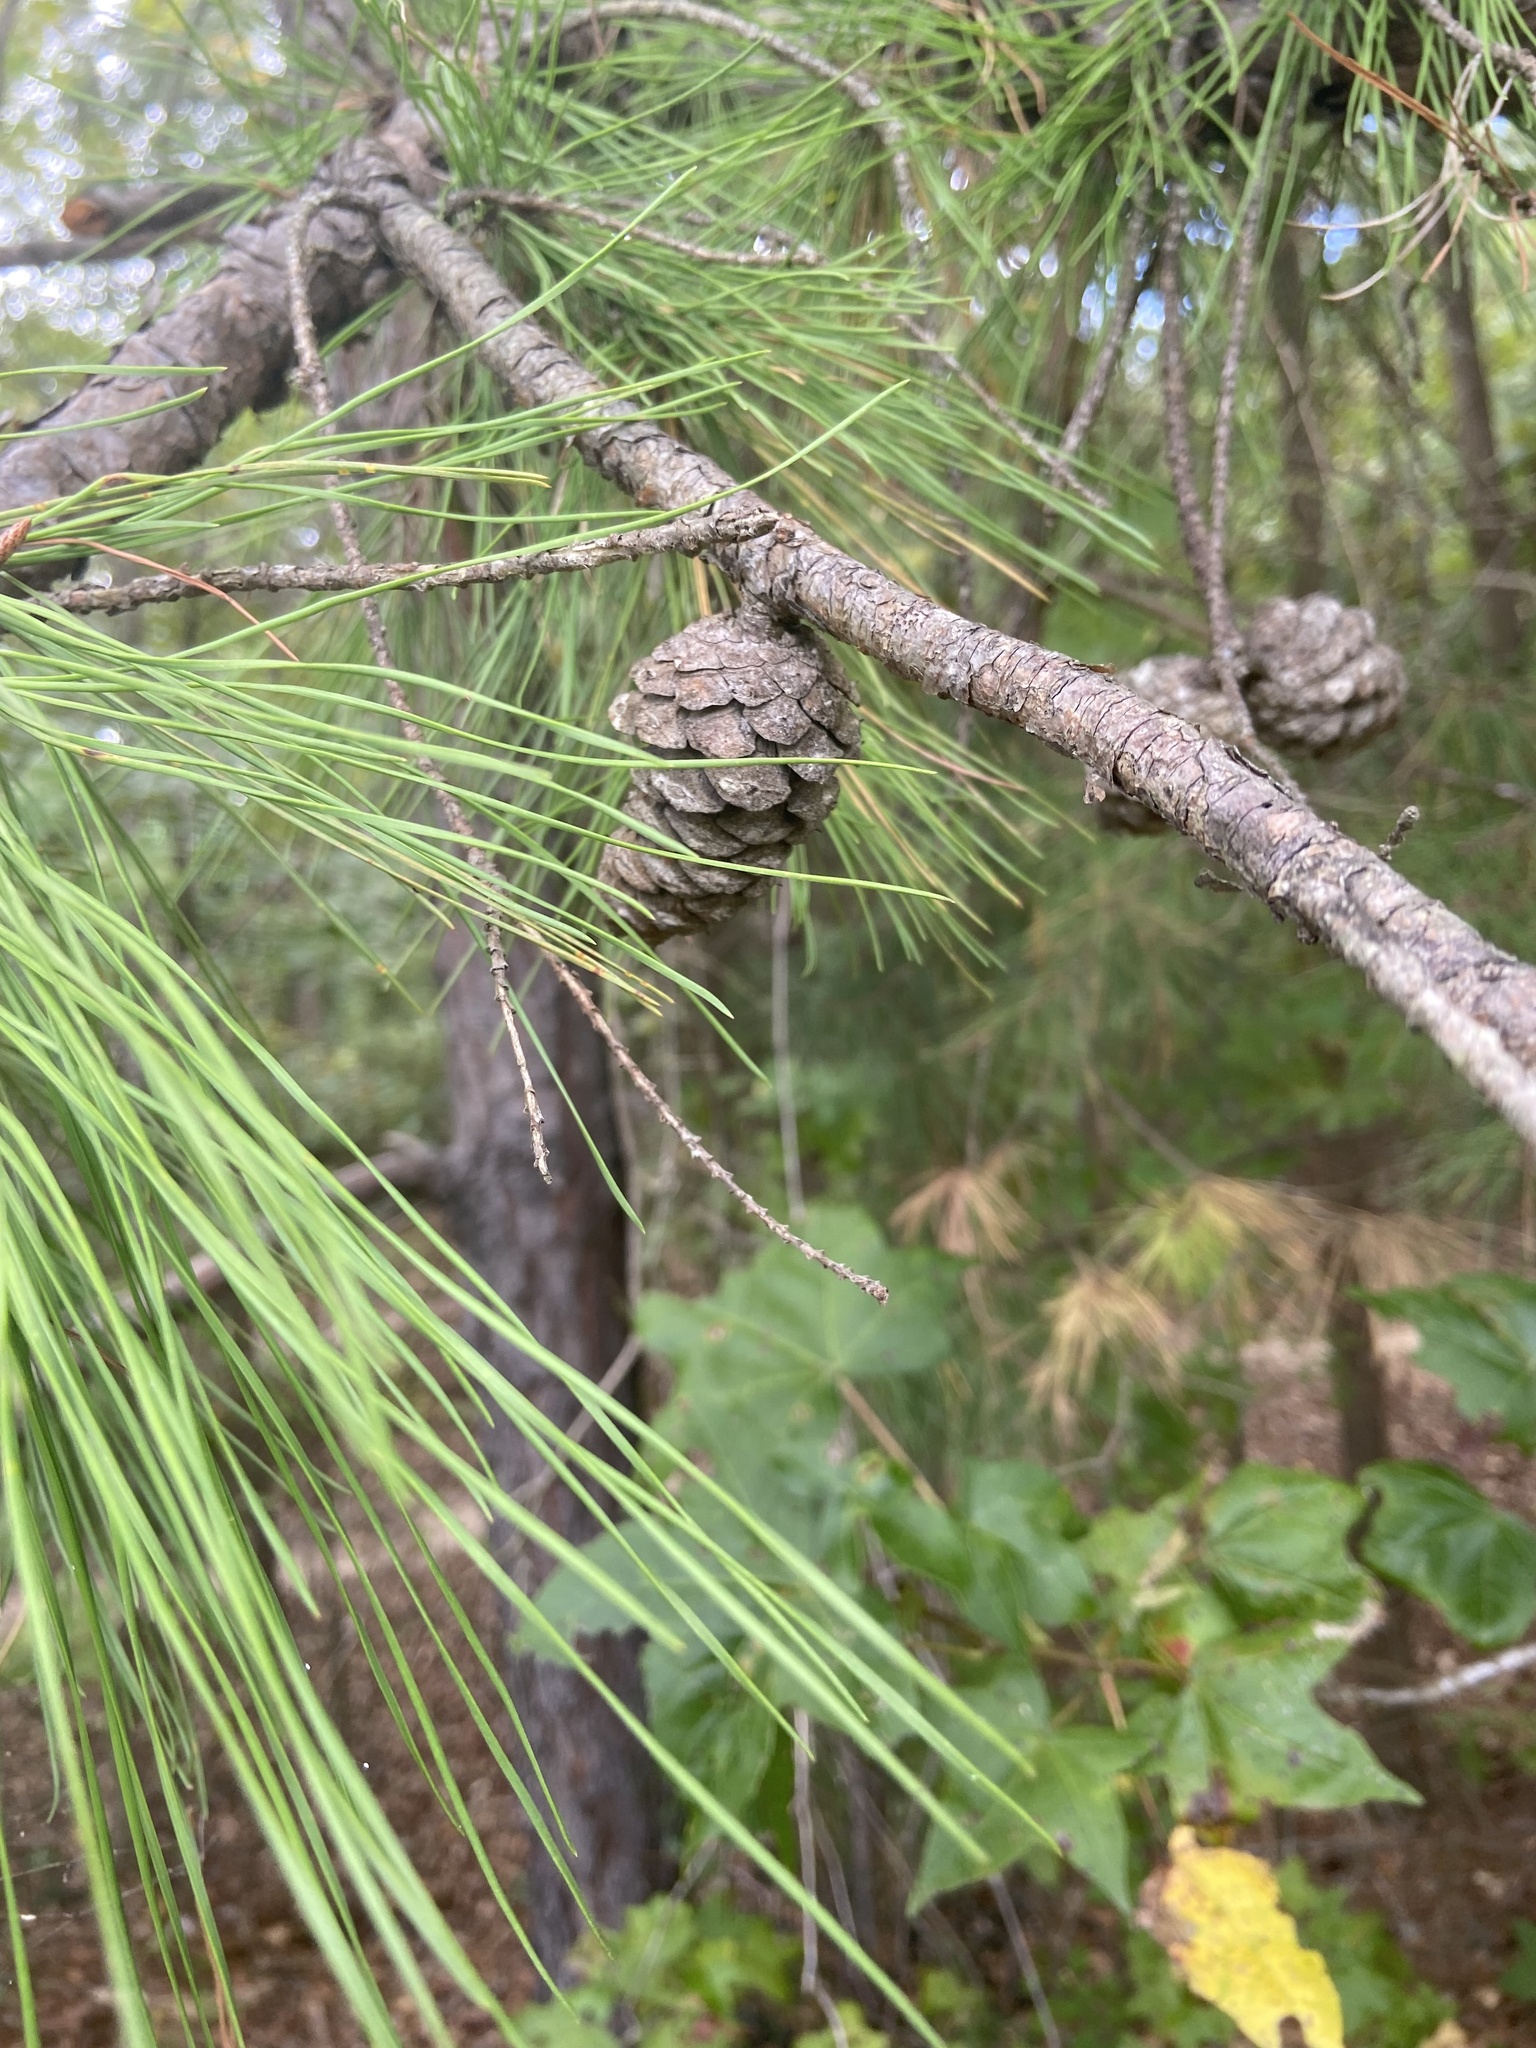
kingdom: Plantae
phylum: Tracheophyta
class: Pinopsida
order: Pinales
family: Pinaceae
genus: Pinus
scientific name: Pinus echinata
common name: Shortleaf pine
